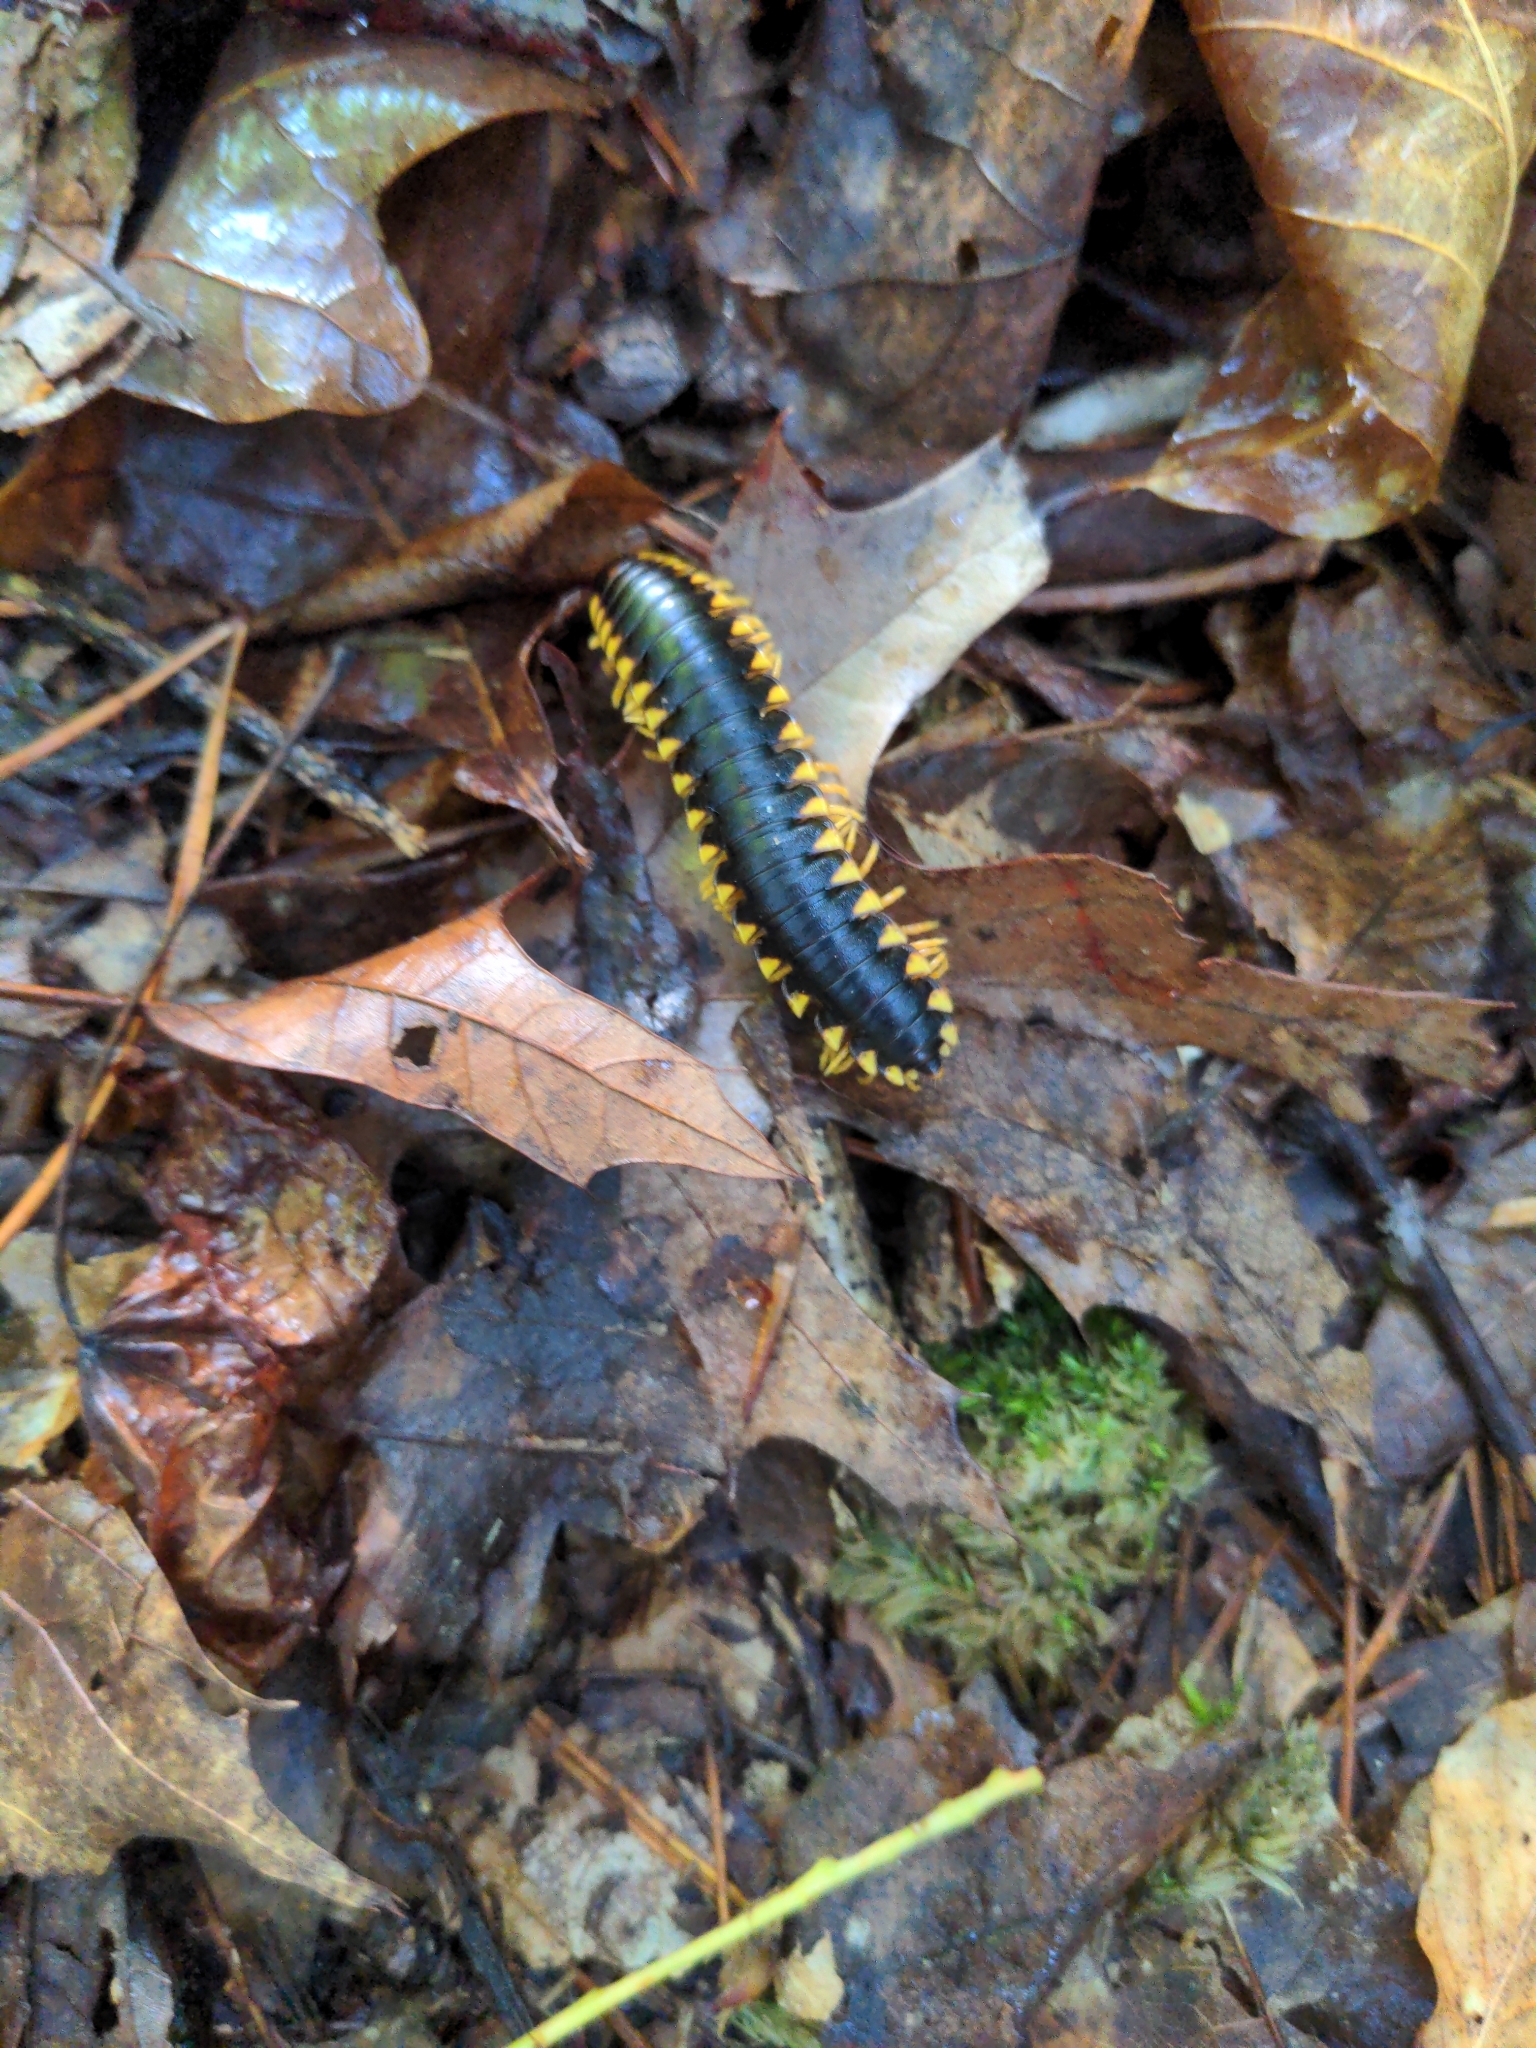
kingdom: Animalia
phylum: Arthropoda
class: Diplopoda
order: Polydesmida
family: Xystodesmidae
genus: Apheloria
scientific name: Apheloria tigana
